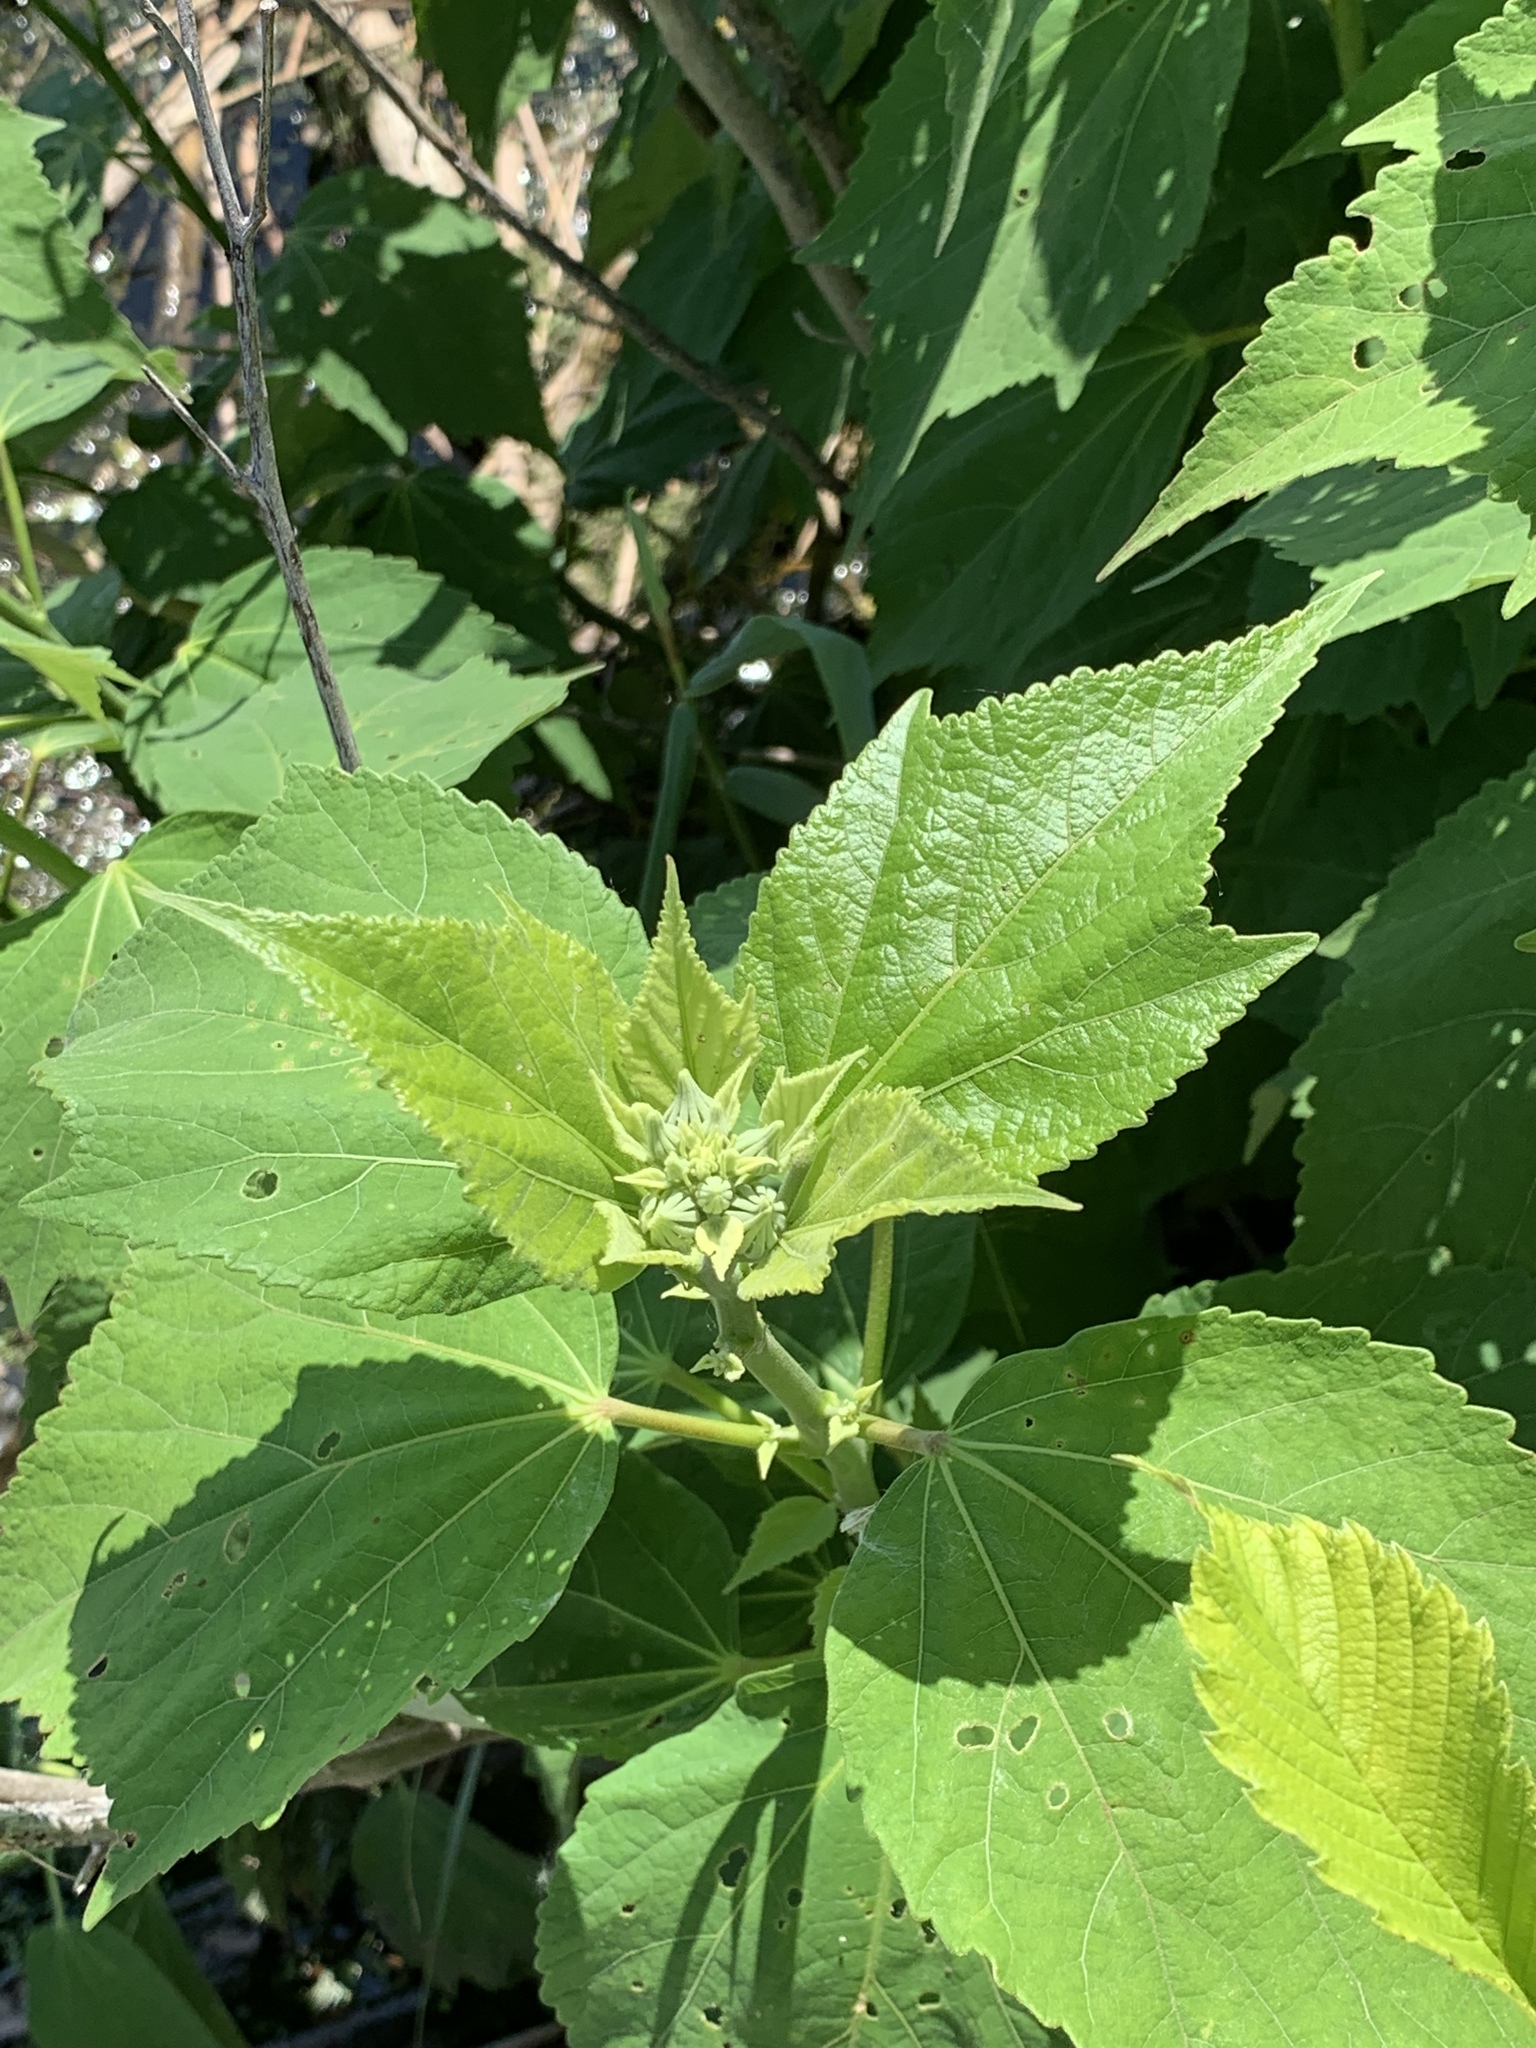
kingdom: Plantae
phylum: Tracheophyta
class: Magnoliopsida
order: Malvales
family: Malvaceae
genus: Hibiscus
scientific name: Hibiscus moscheutos
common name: Common rose-mallow
